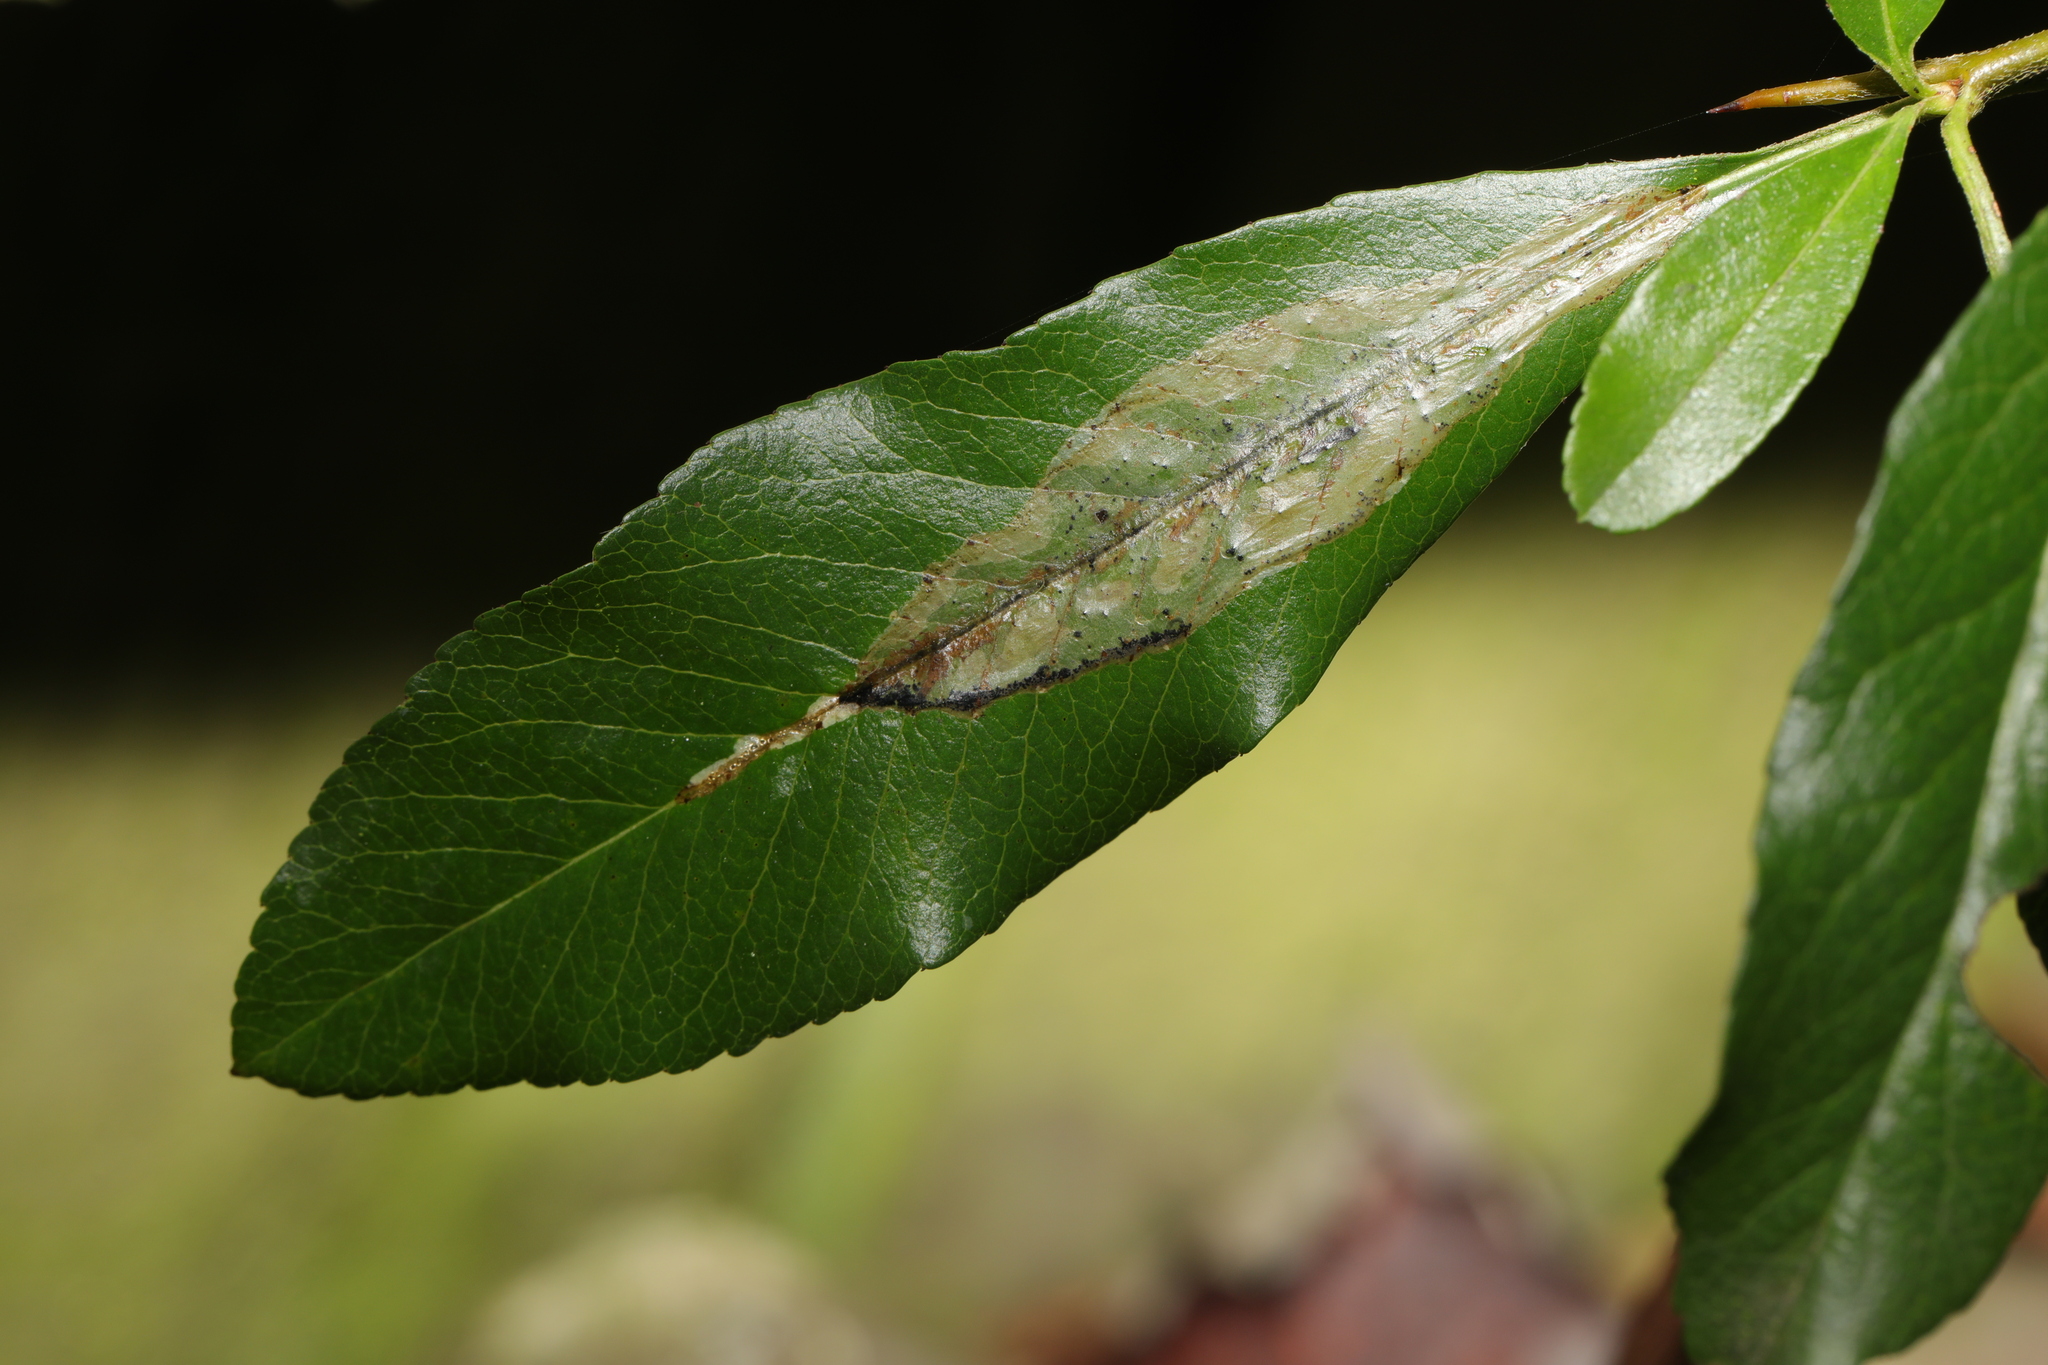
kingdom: Animalia
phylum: Arthropoda
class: Insecta
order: Lepidoptera
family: Gracillariidae
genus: Phyllonorycter
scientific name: Phyllonorycter leucographella
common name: Firethorn leaf-miner
